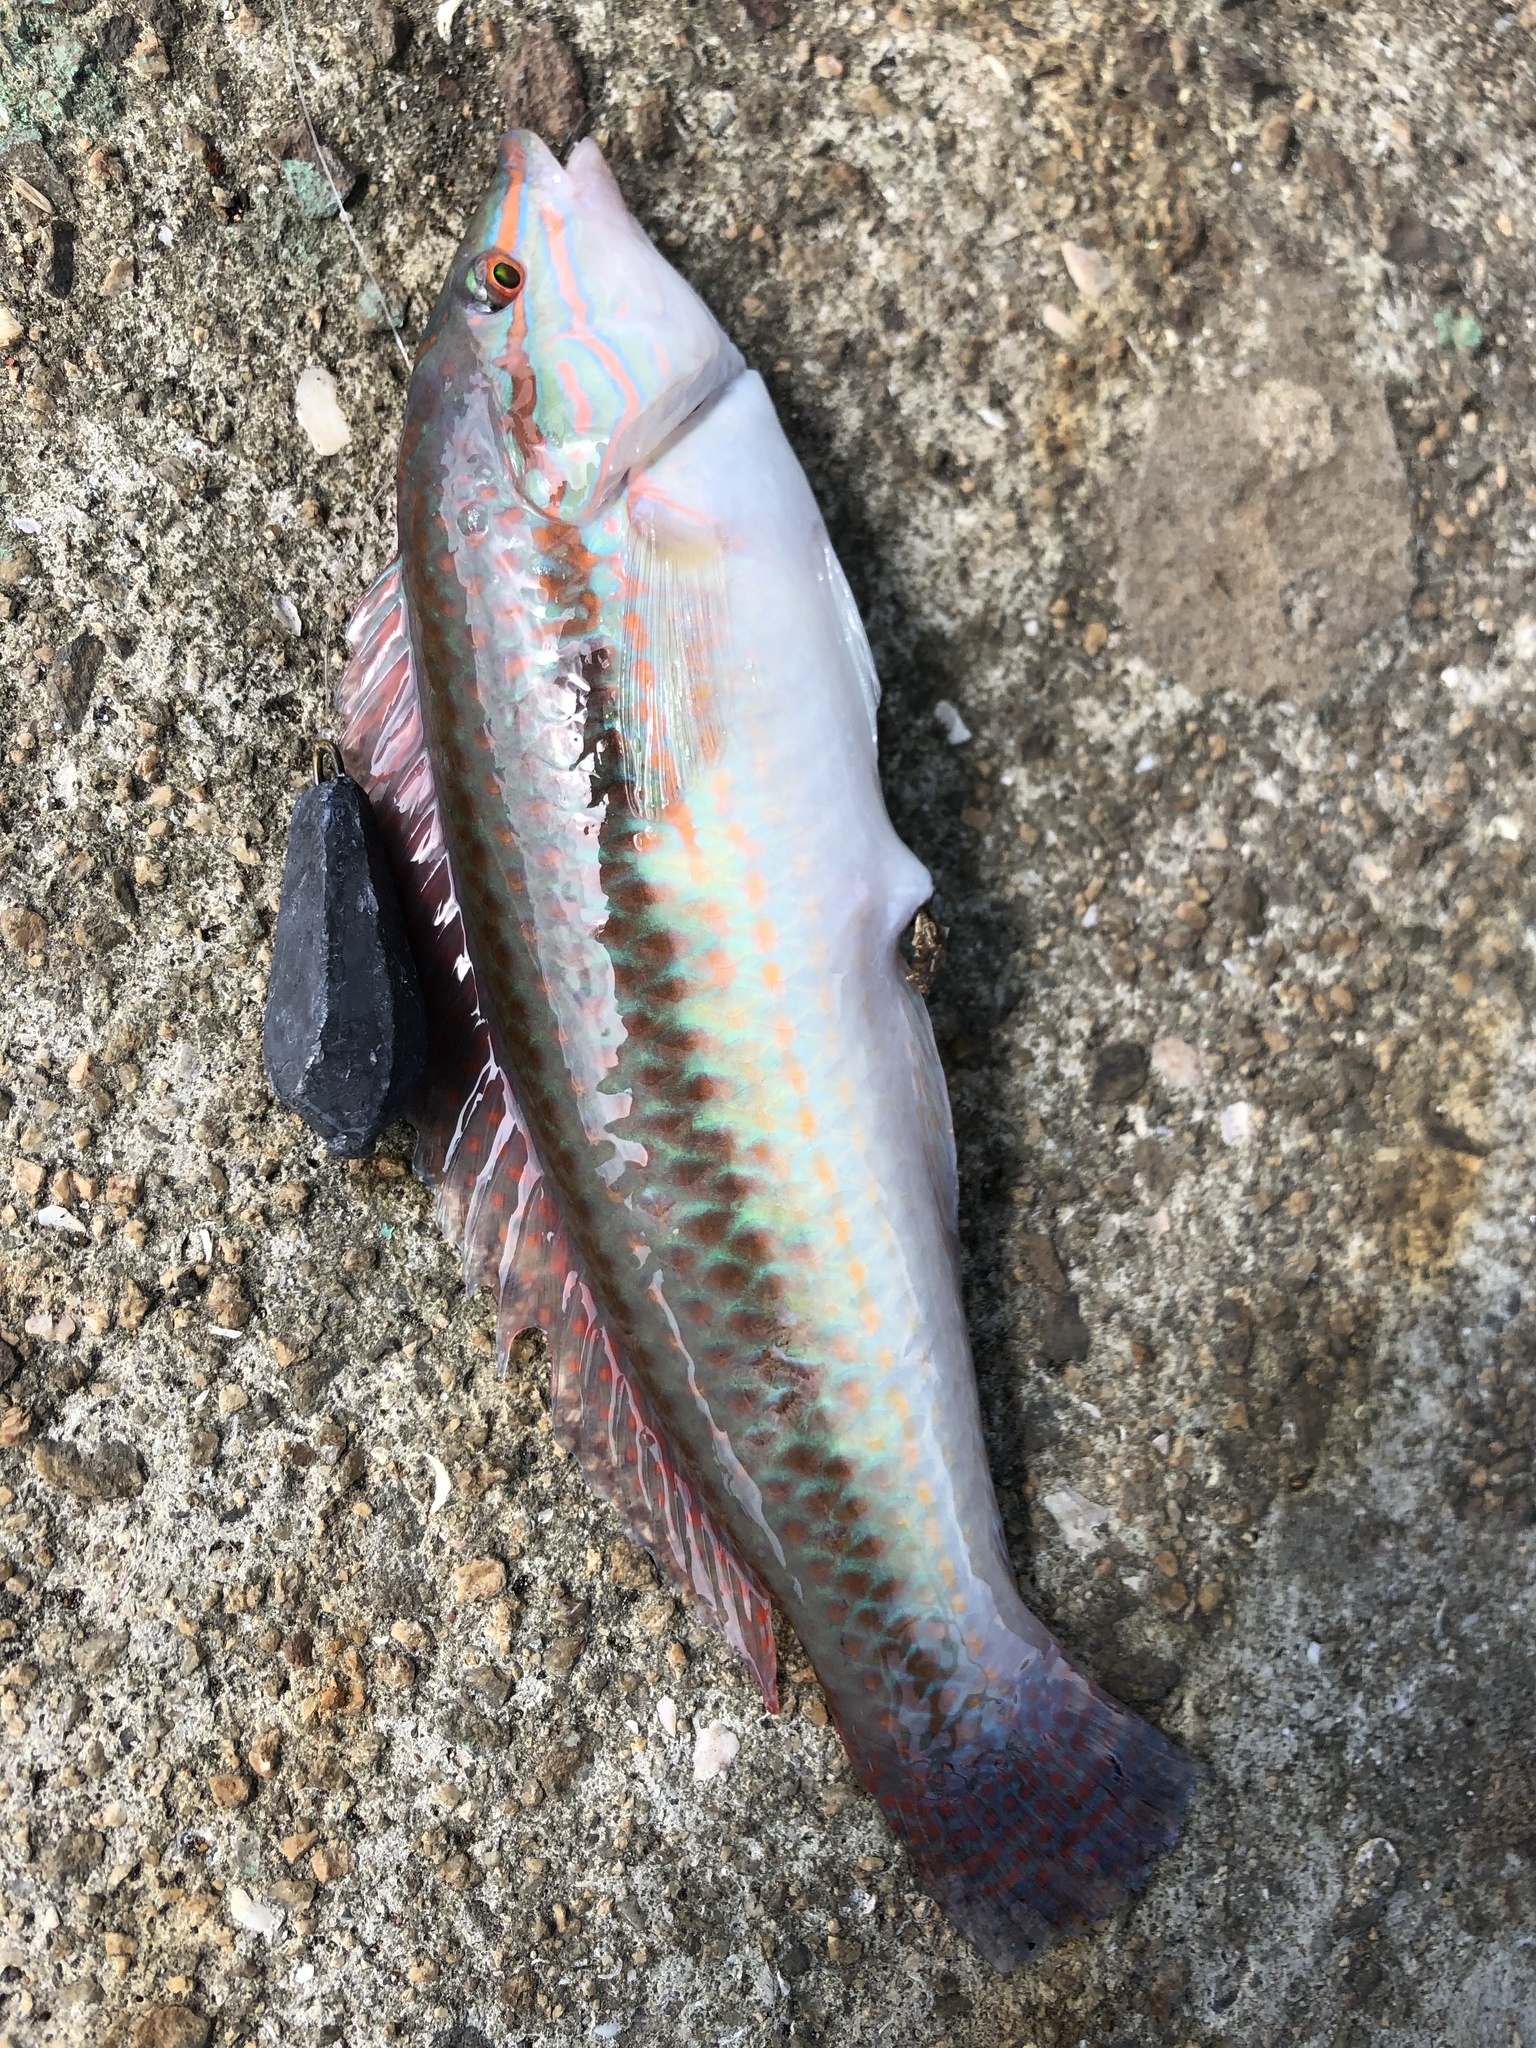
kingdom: Animalia
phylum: Chordata
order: Perciformes
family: Labridae
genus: Parajulis
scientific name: Parajulis poecilepterus
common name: Multicolorfin rainbowfish
